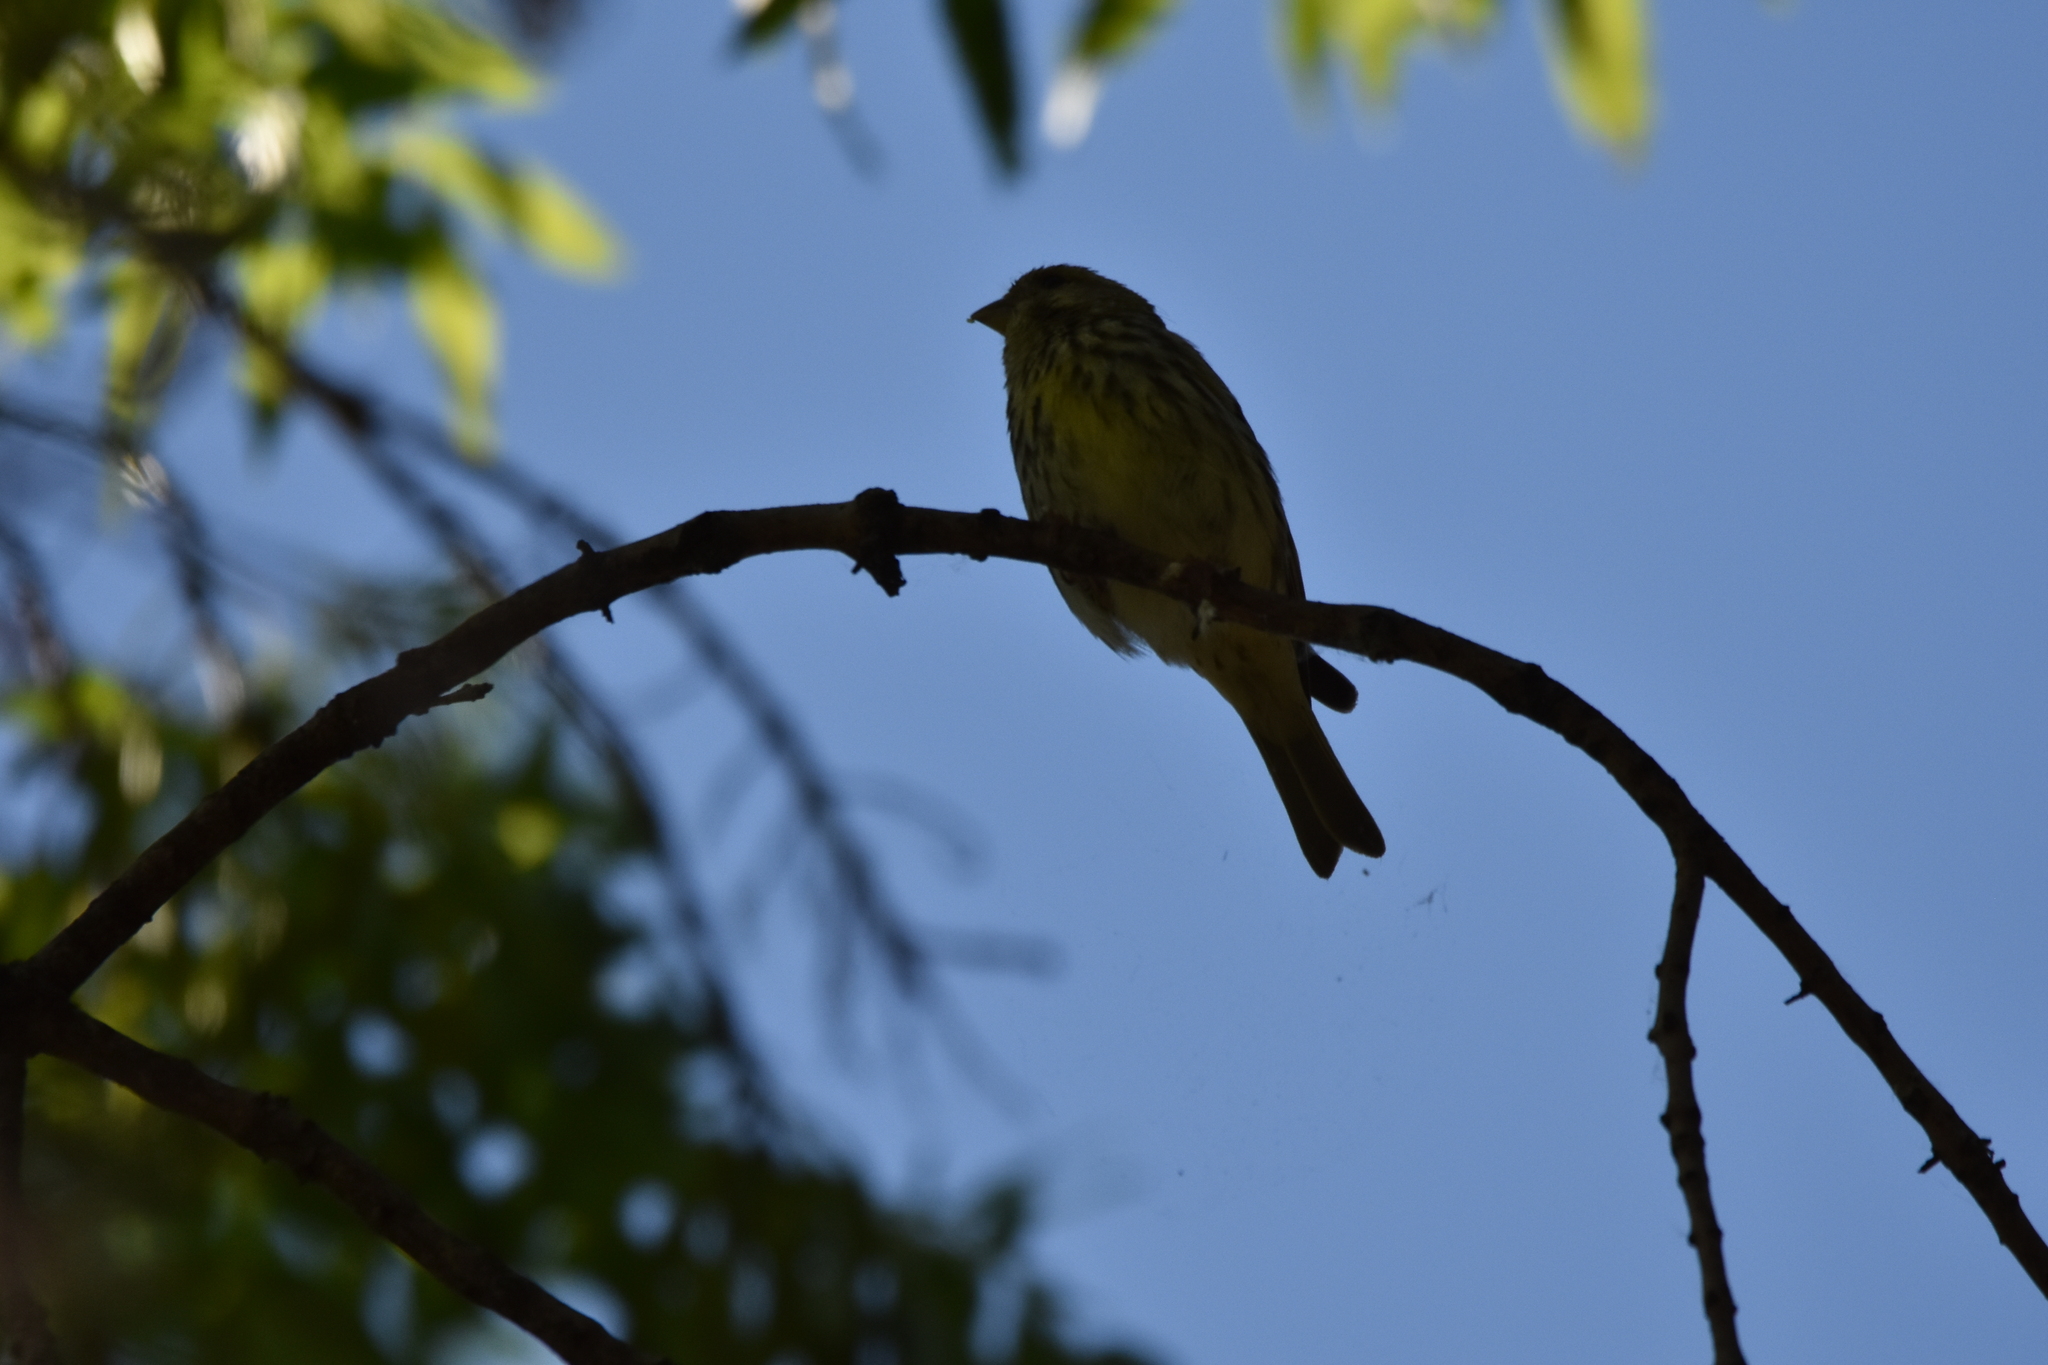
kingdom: Animalia
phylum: Chordata
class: Aves
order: Passeriformes
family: Fringillidae
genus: Serinus
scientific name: Serinus serinus
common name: European serin
